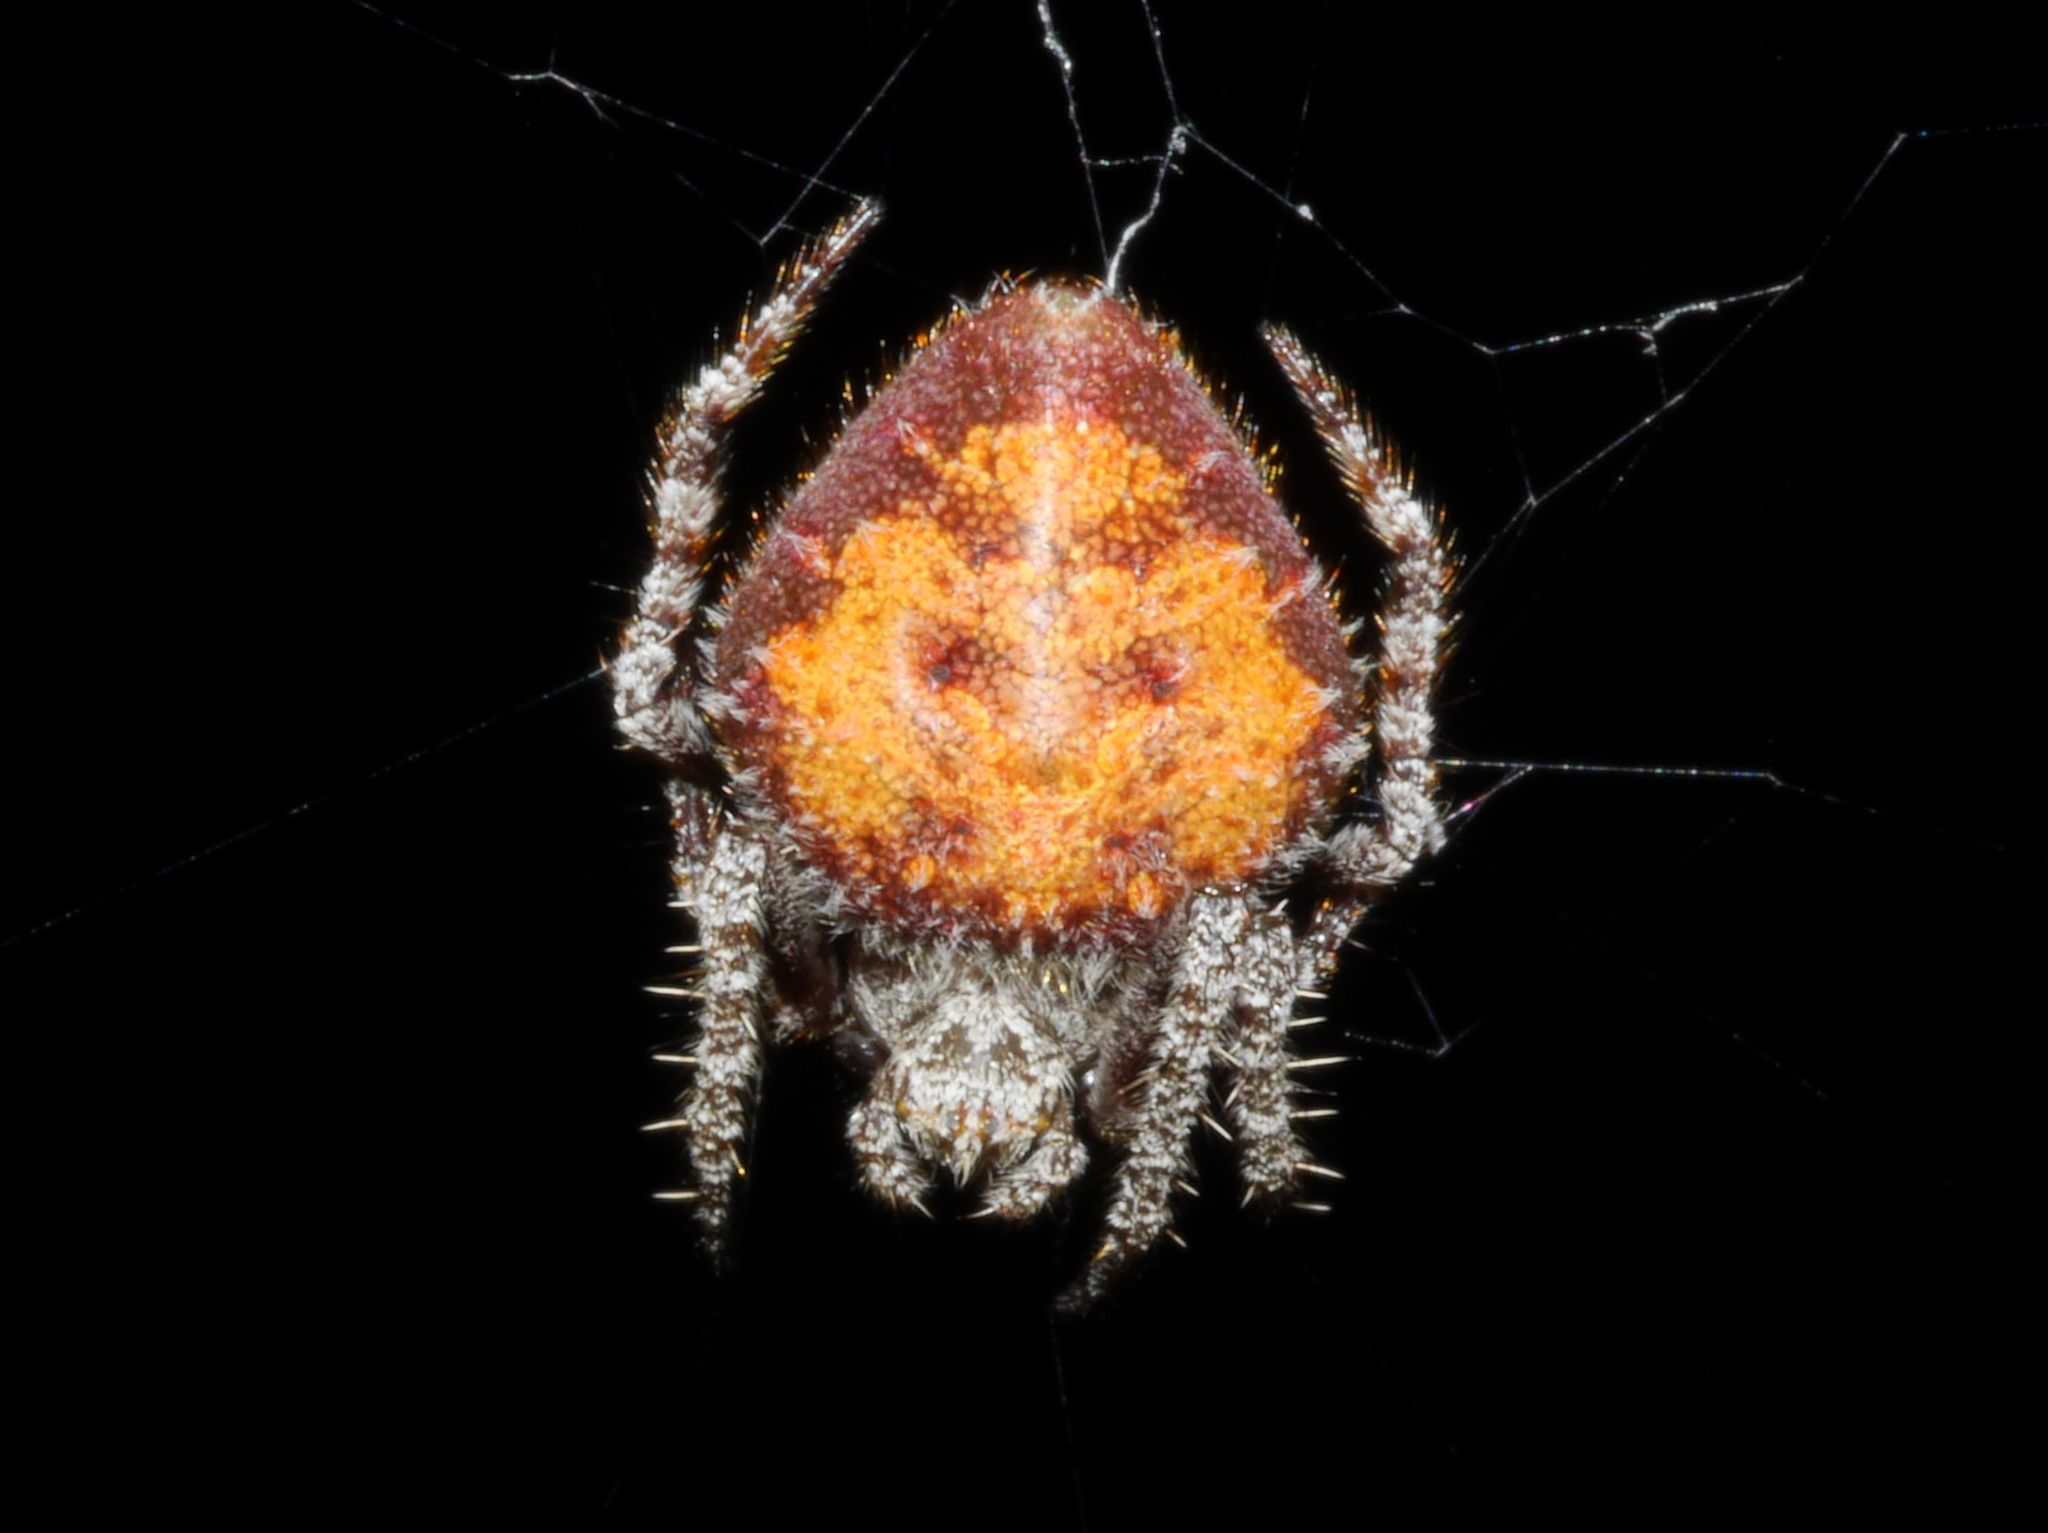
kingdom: Animalia
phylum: Arthropoda
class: Arachnida
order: Araneae
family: Araneidae
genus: Eriovixia
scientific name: Eriovixia poonaensis
